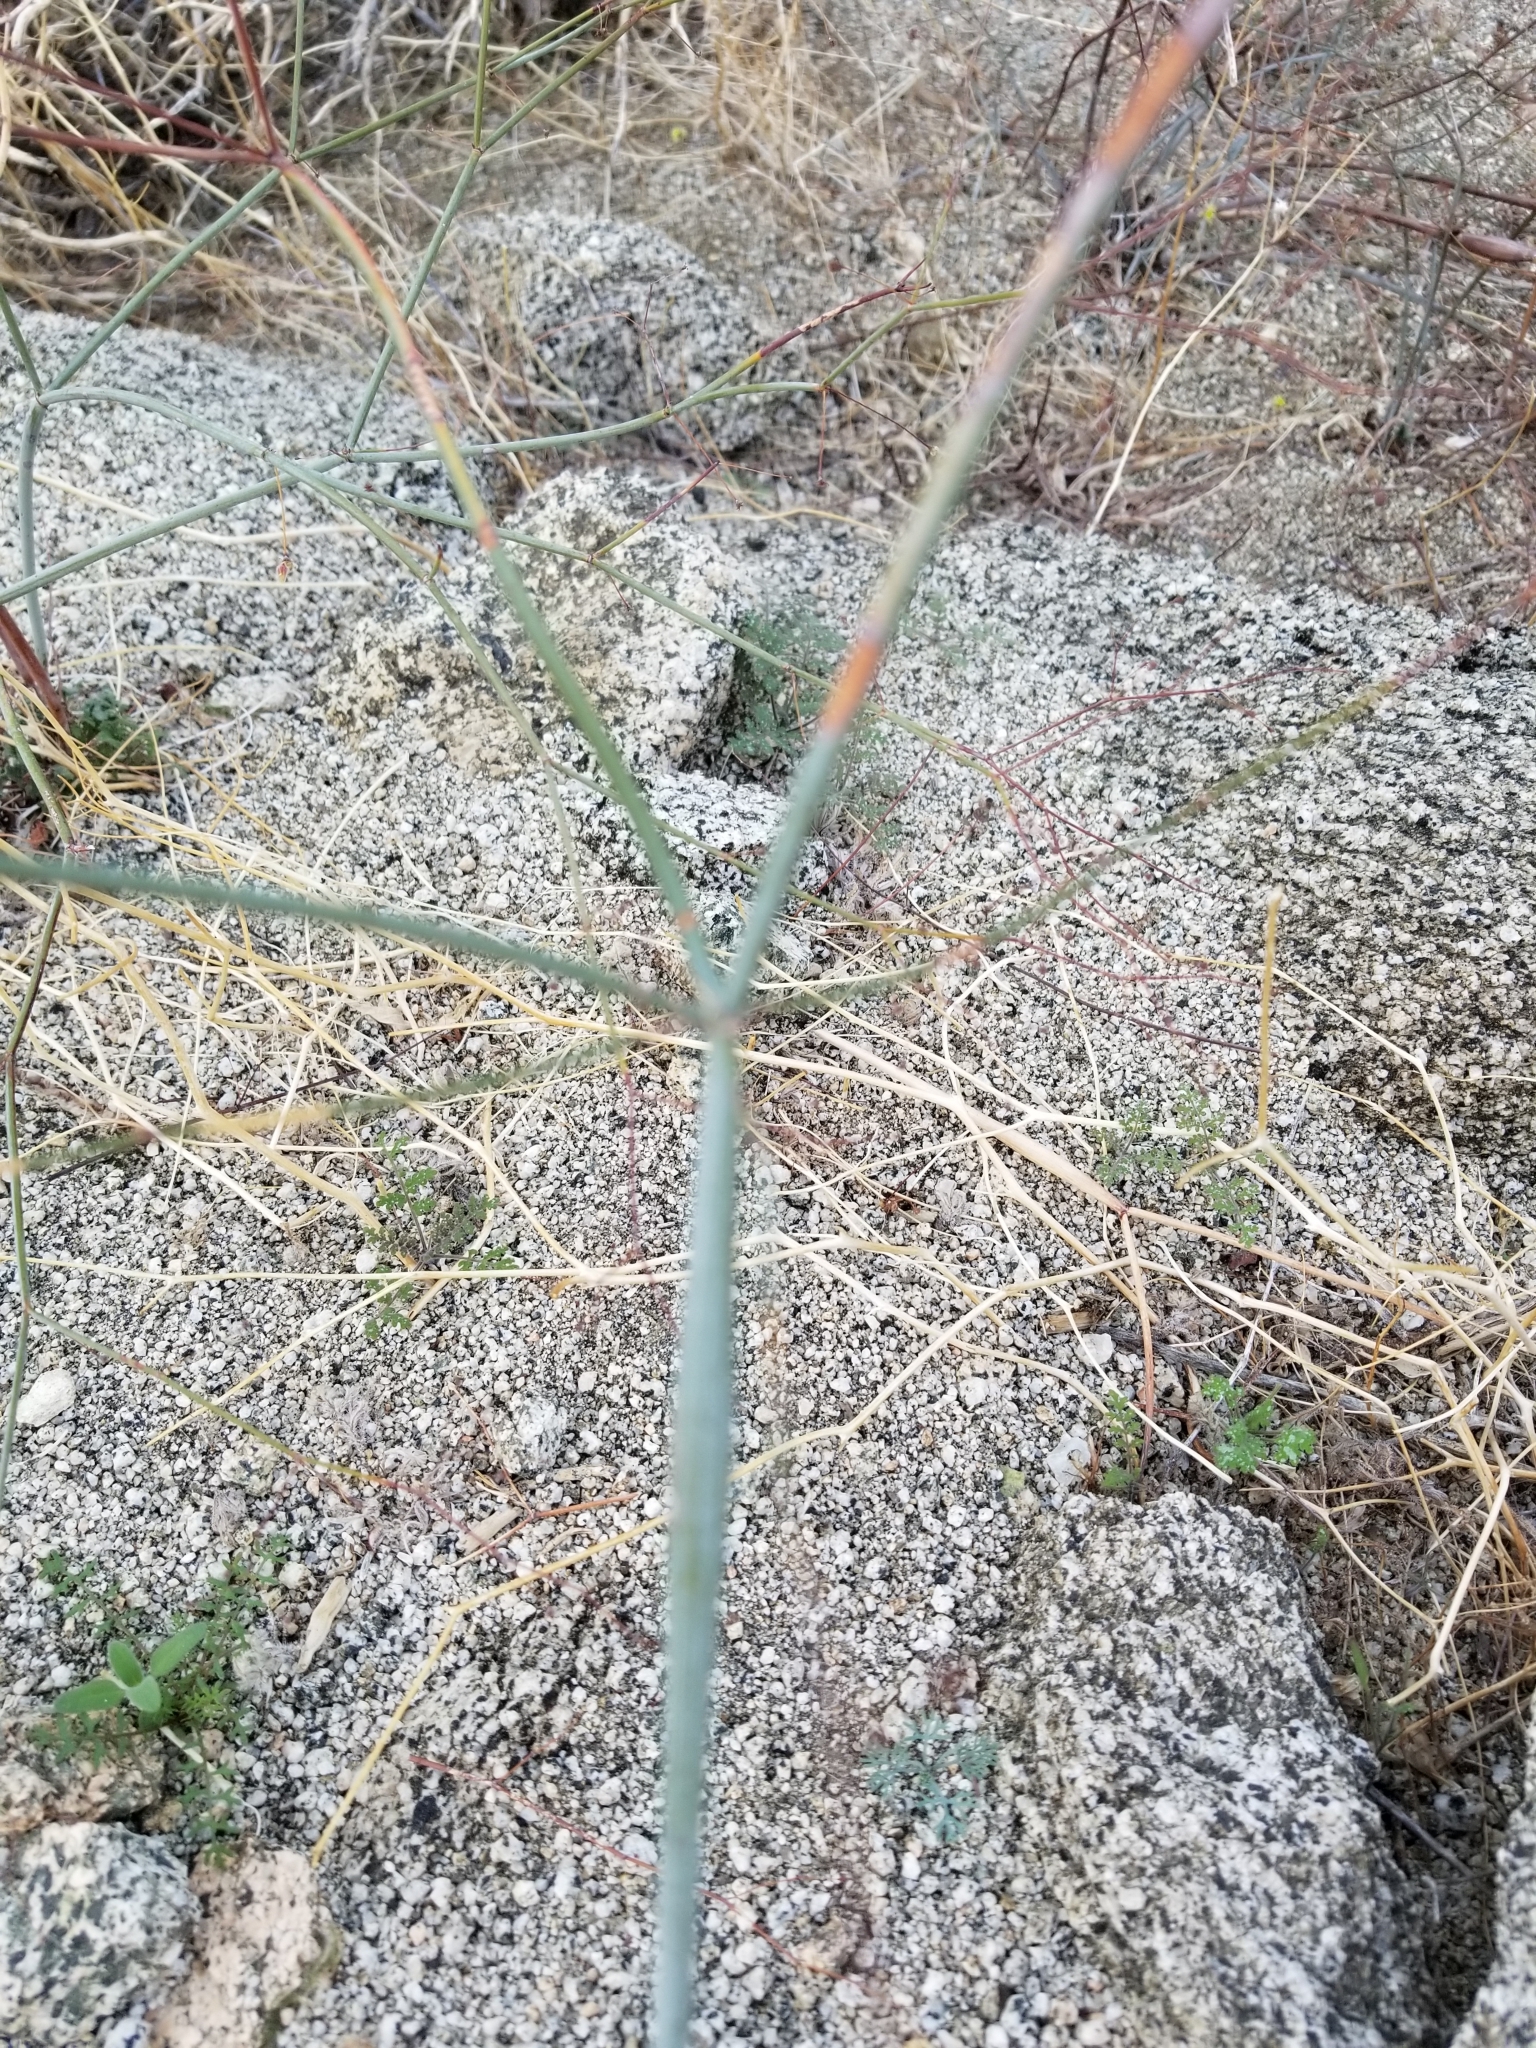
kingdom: Plantae
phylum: Tracheophyta
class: Magnoliopsida
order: Caryophyllales
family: Polygonaceae
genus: Eriogonum
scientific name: Eriogonum inflatum
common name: Desert trumpet
